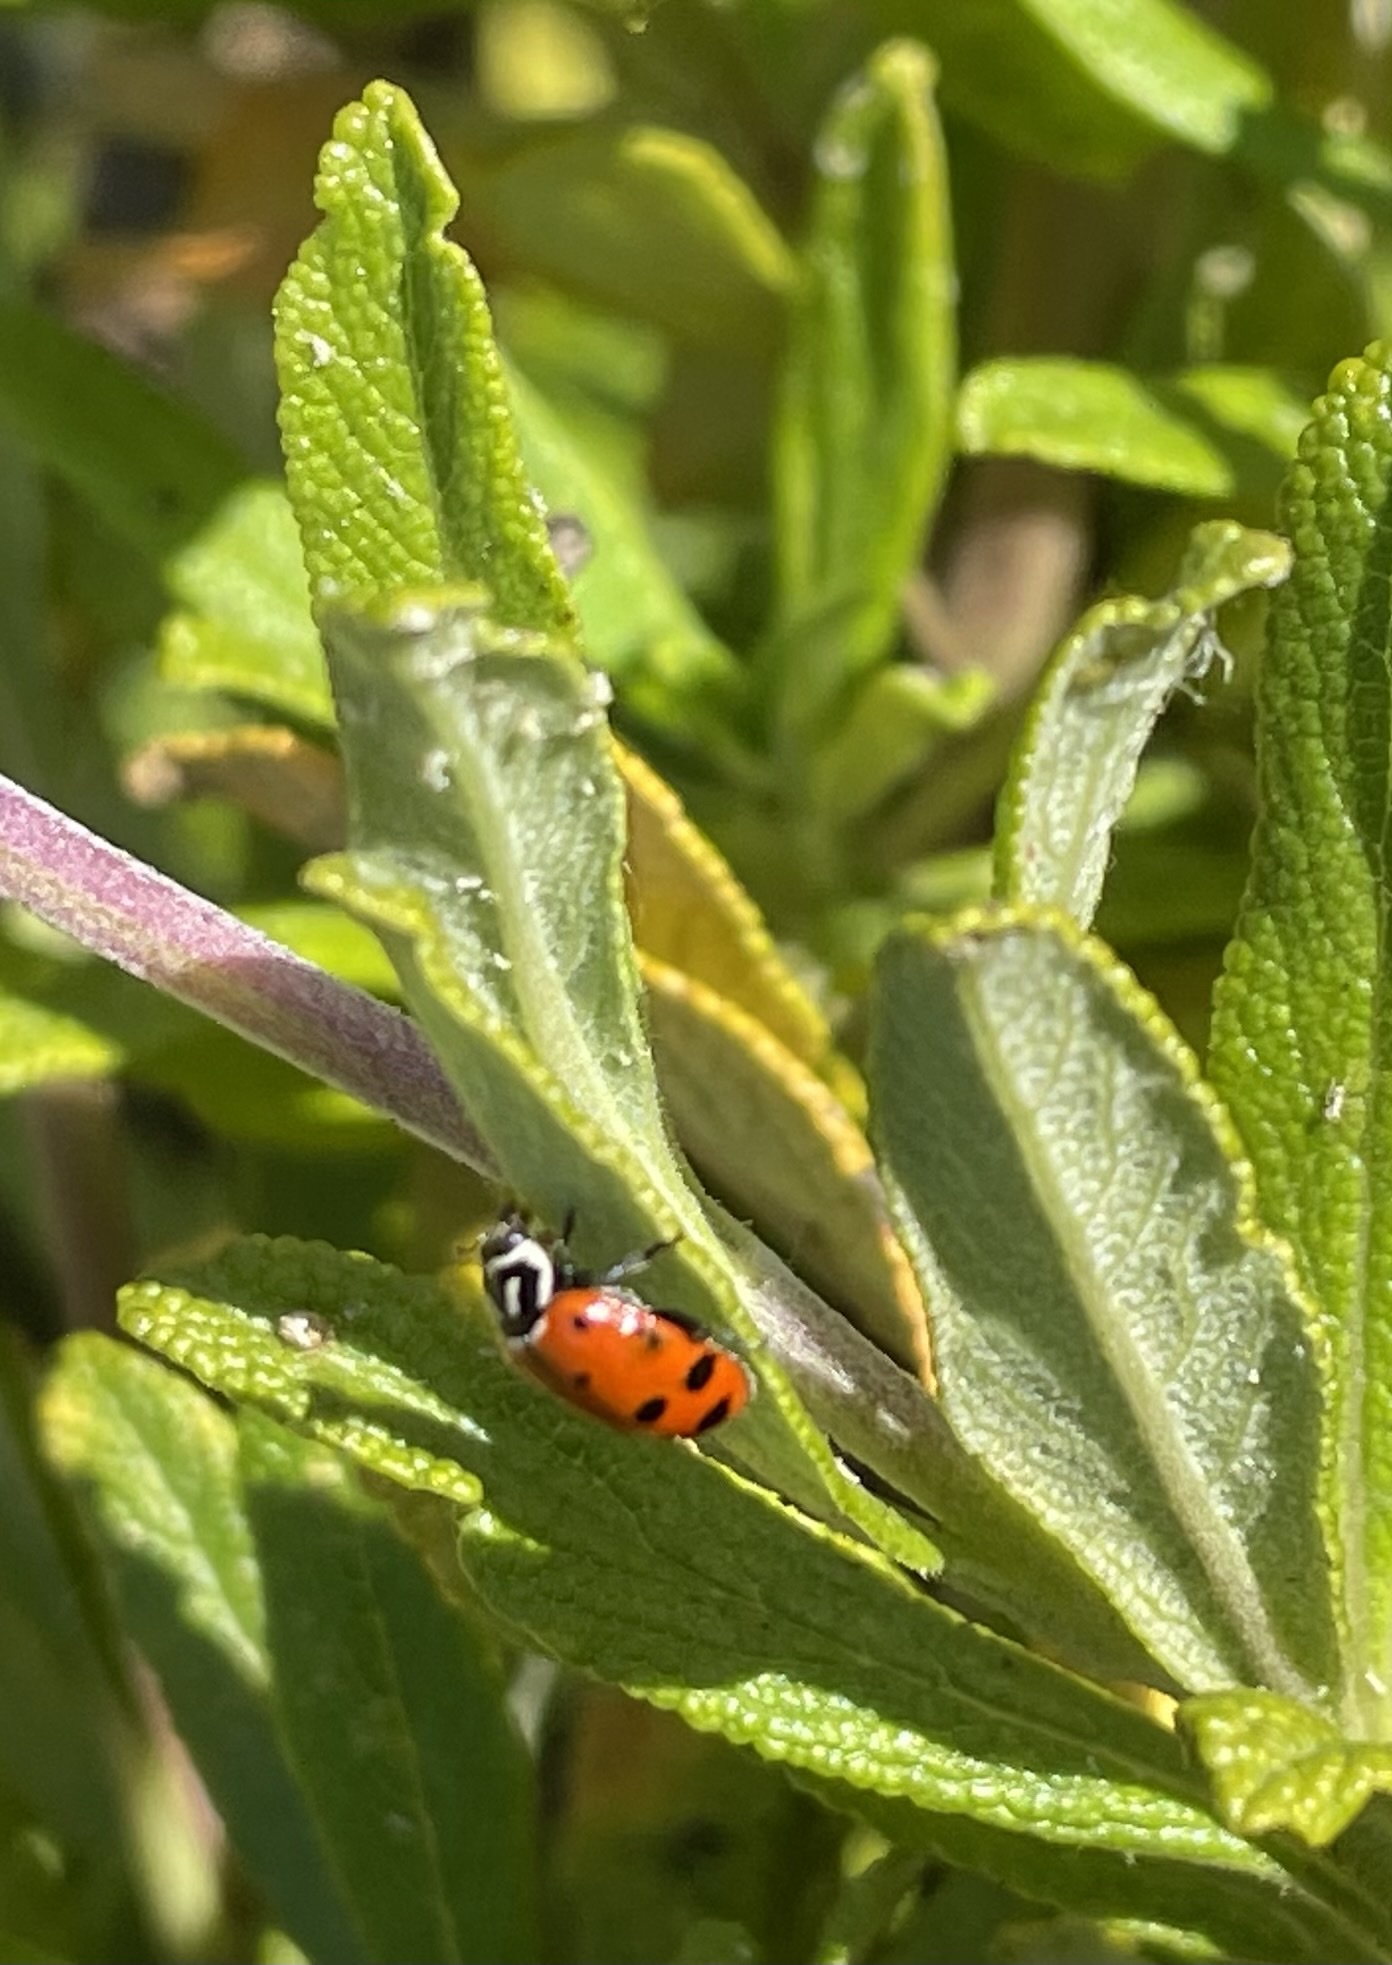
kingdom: Animalia
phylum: Arthropoda
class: Insecta
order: Coleoptera
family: Coccinellidae
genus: Hippodamia
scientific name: Hippodamia convergens
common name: Convergent lady beetle
